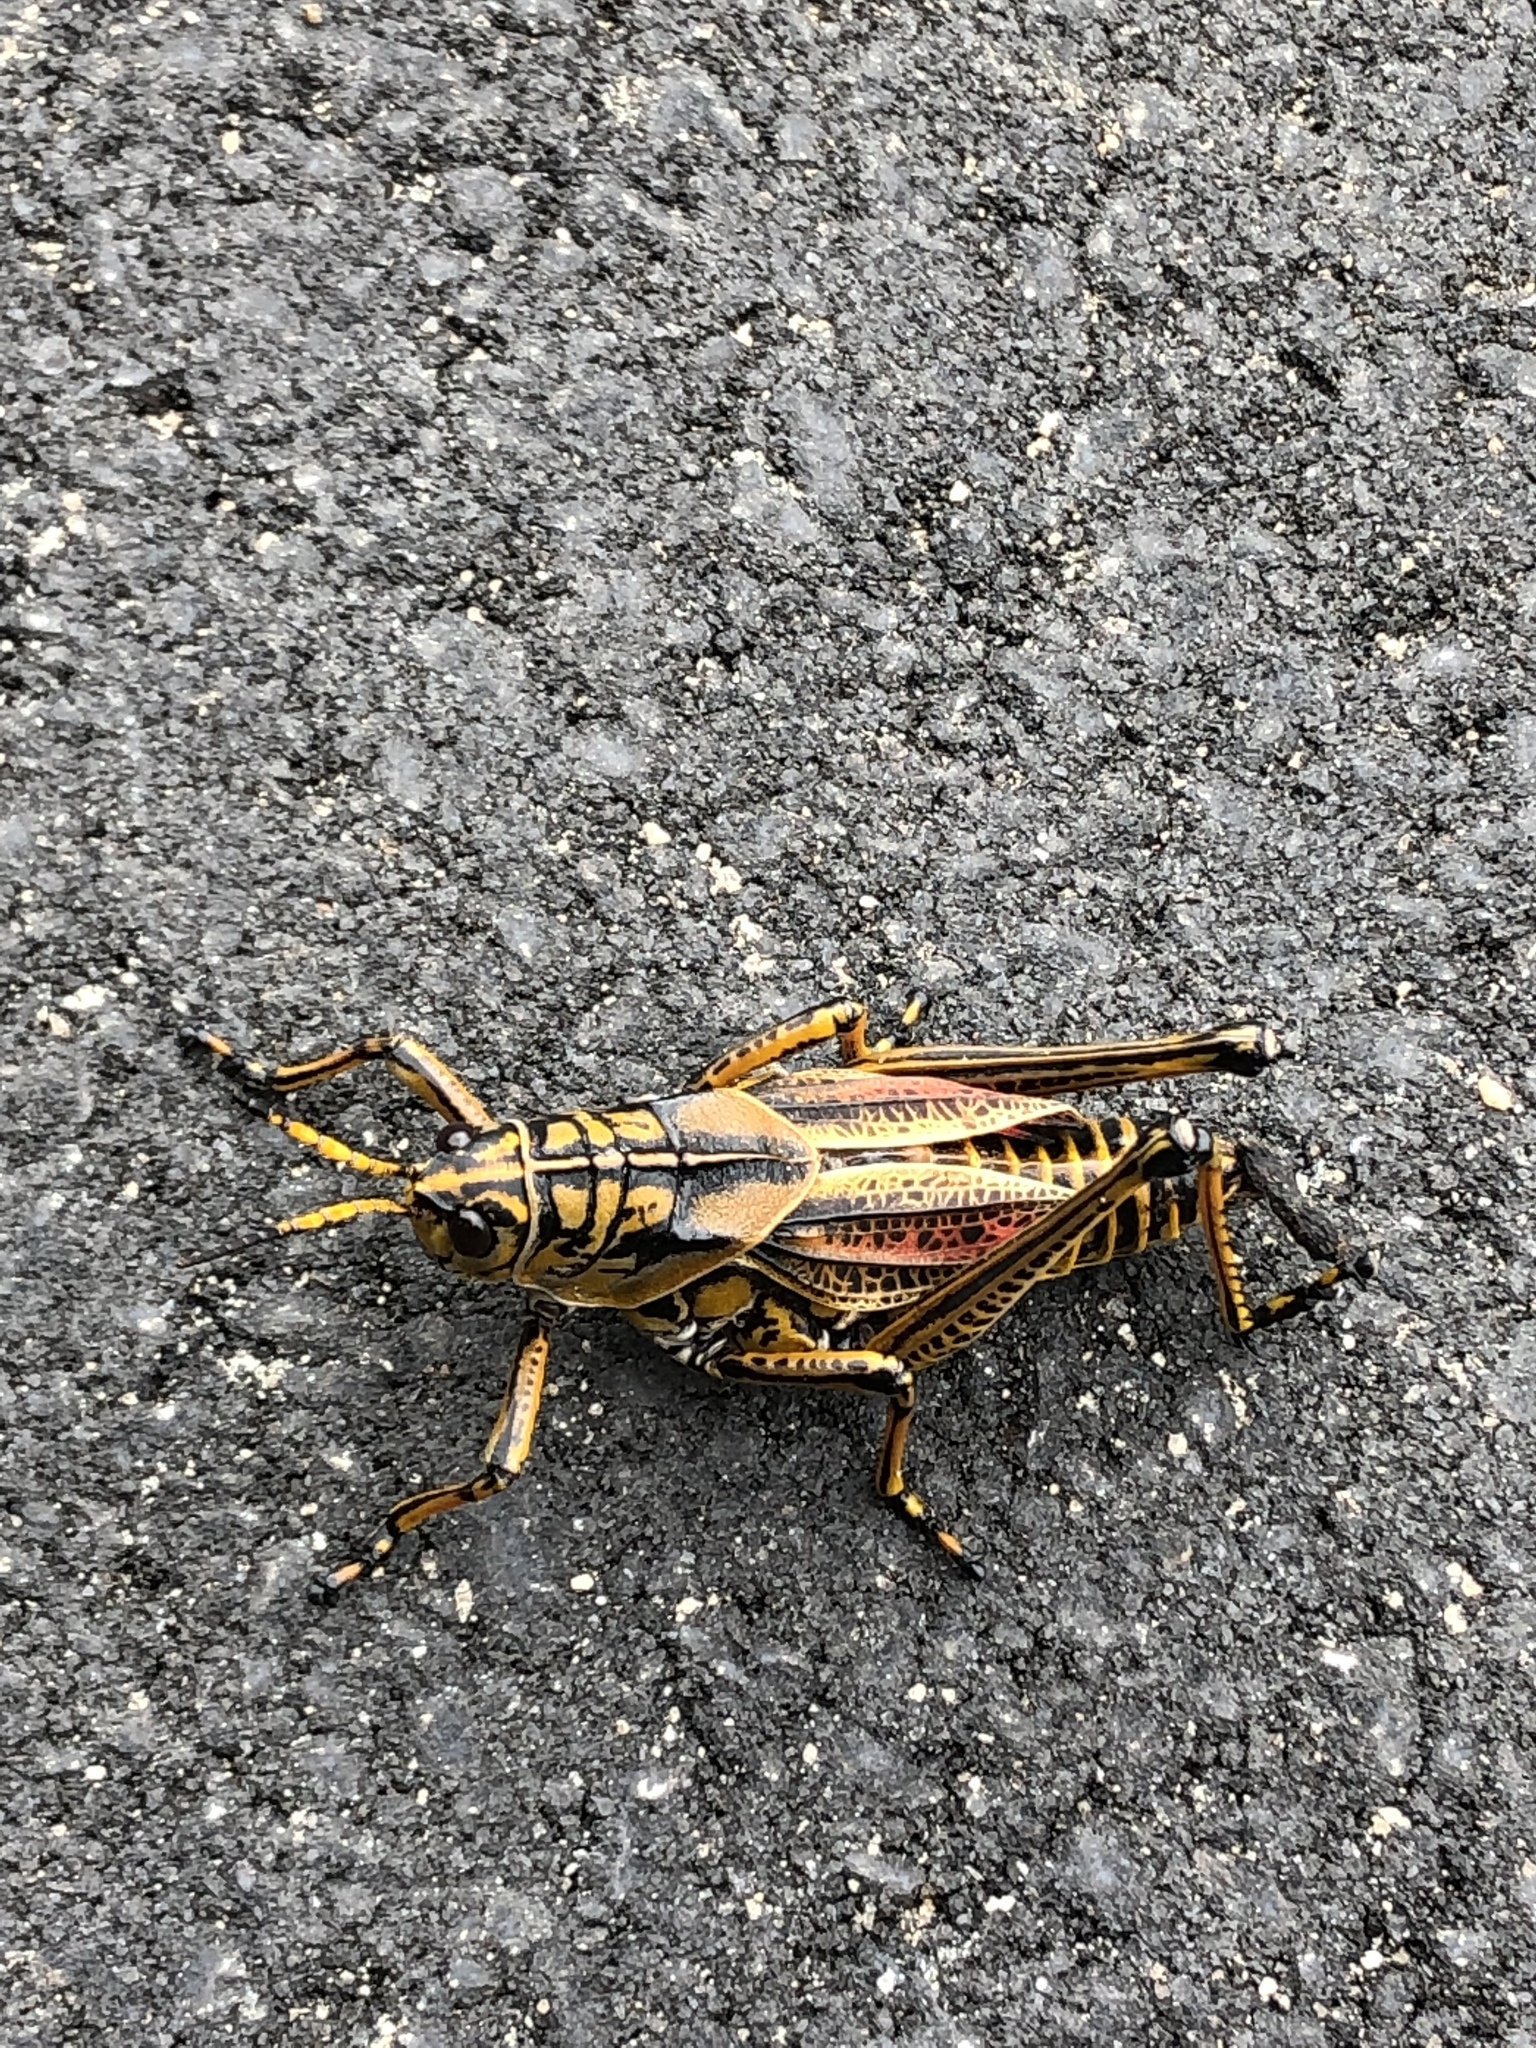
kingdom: Animalia
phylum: Arthropoda
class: Insecta
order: Orthoptera
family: Romaleidae
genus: Romalea
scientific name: Romalea microptera
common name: Eastern lubber grasshopper
